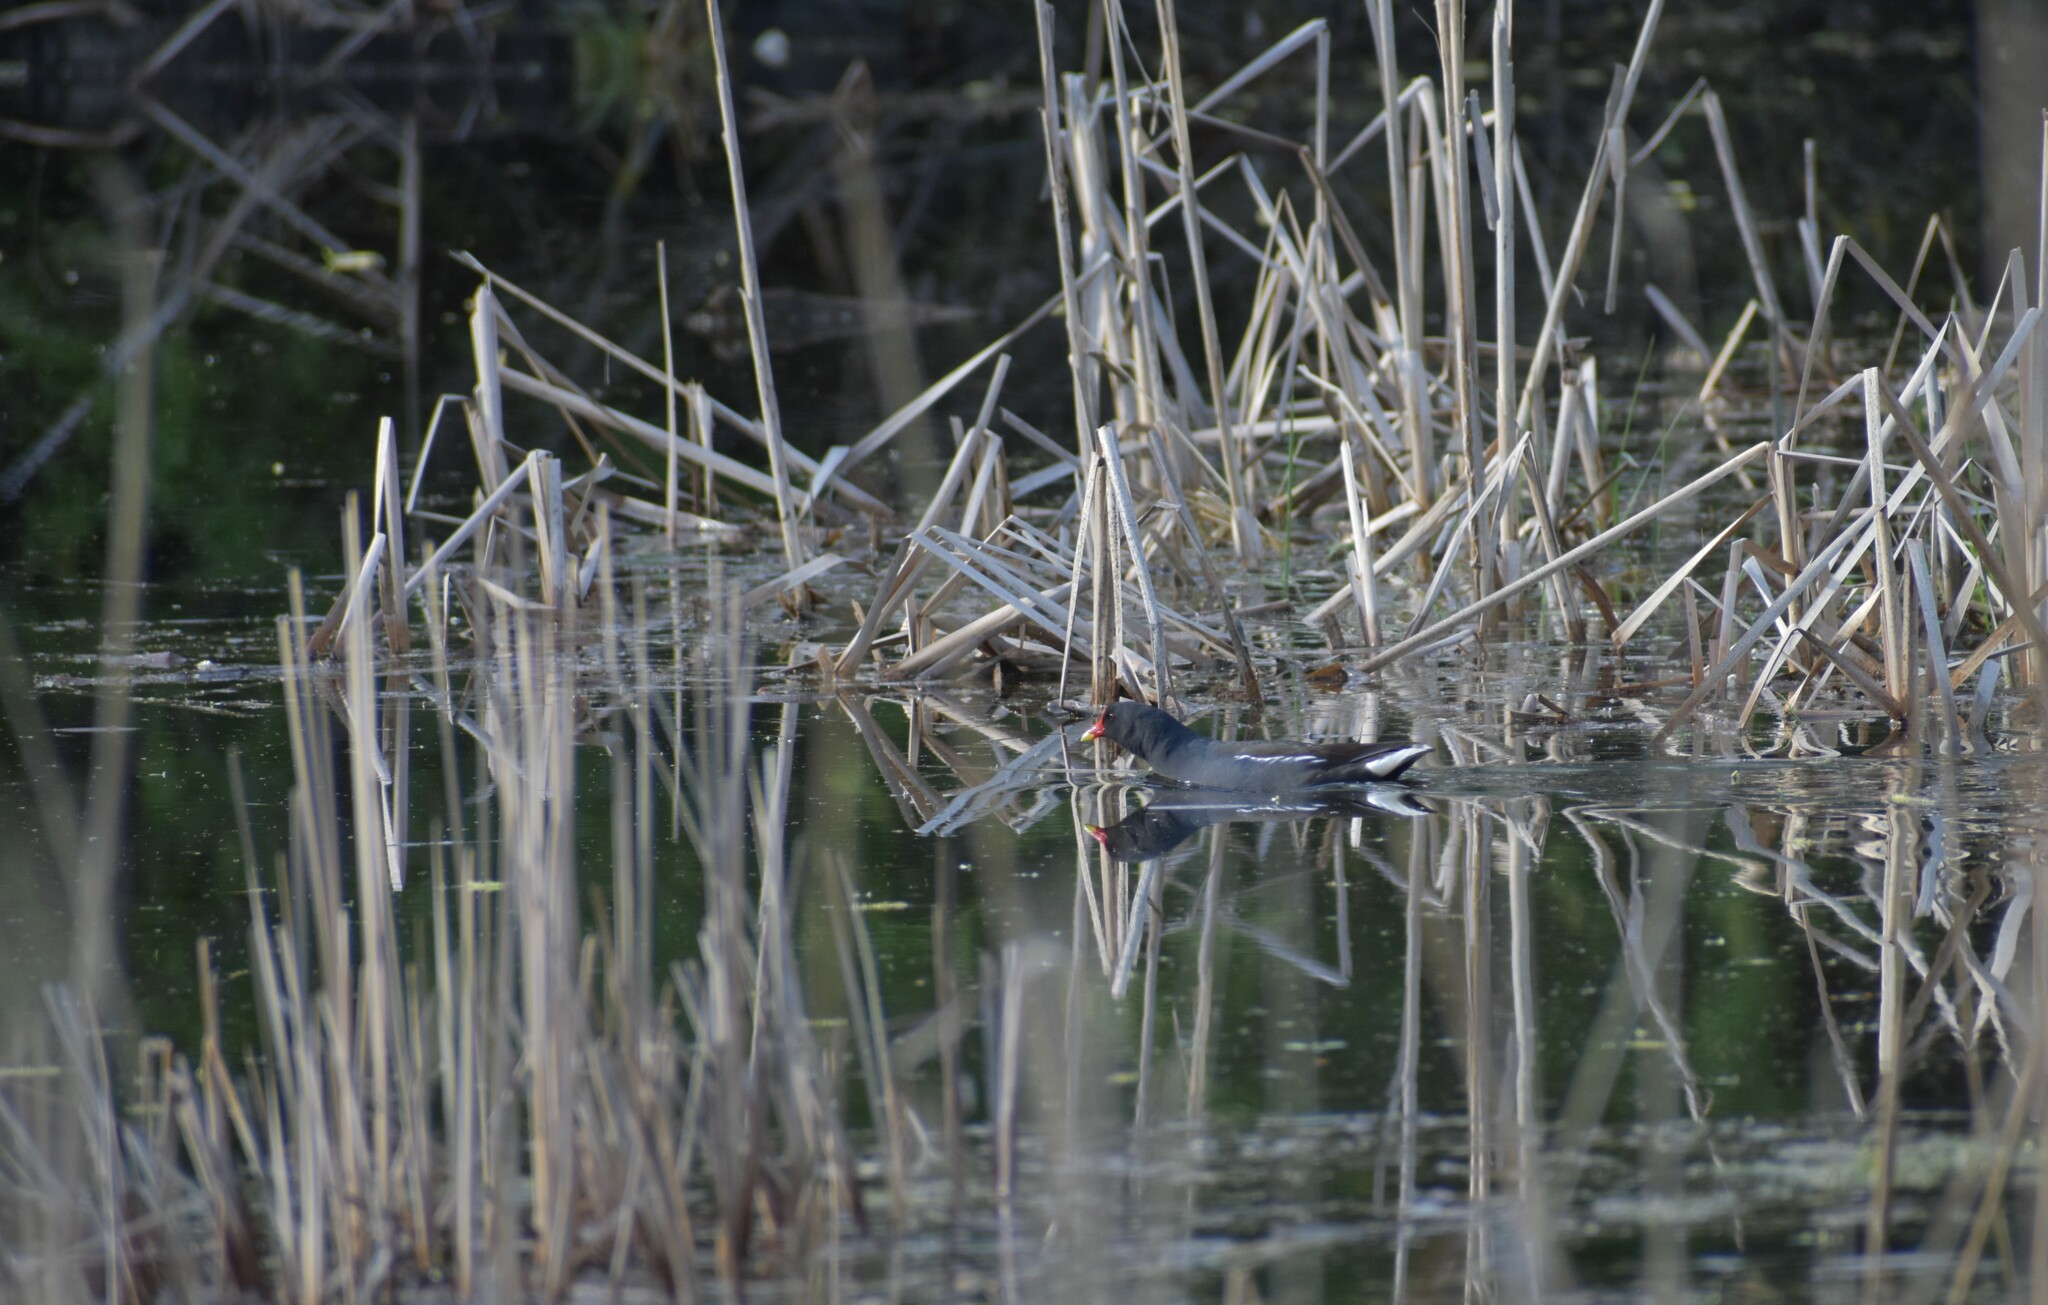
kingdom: Animalia
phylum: Chordata
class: Aves
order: Gruiformes
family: Rallidae
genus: Gallinula
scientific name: Gallinula chloropus
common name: Common moorhen
